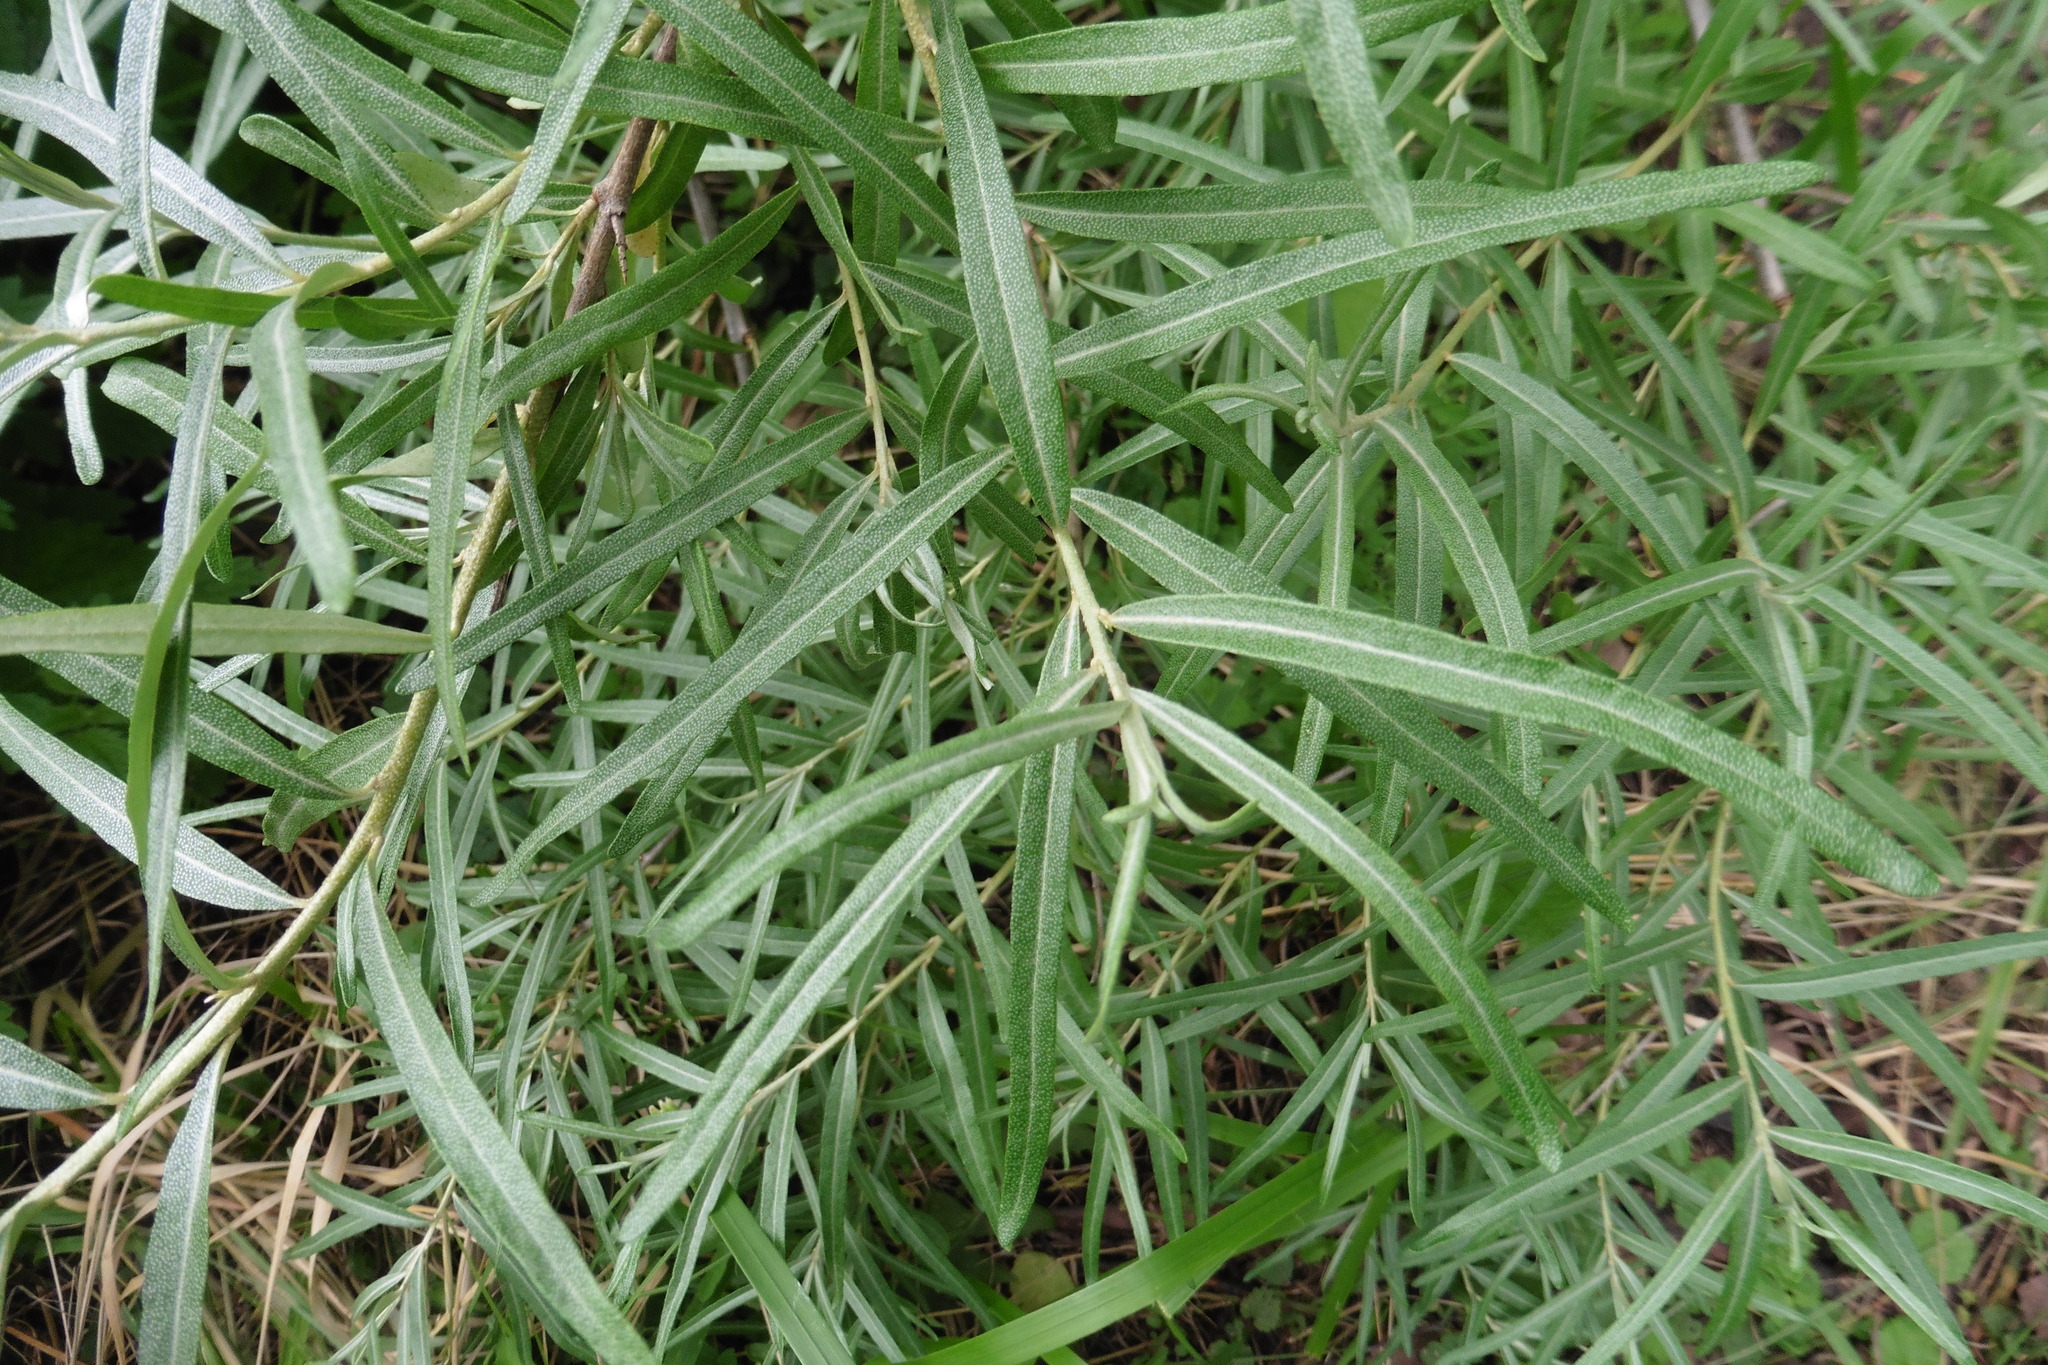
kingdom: Plantae
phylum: Tracheophyta
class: Magnoliopsida
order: Rosales
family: Elaeagnaceae
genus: Hippophae
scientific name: Hippophae rhamnoides
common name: Sea-buckthorn
